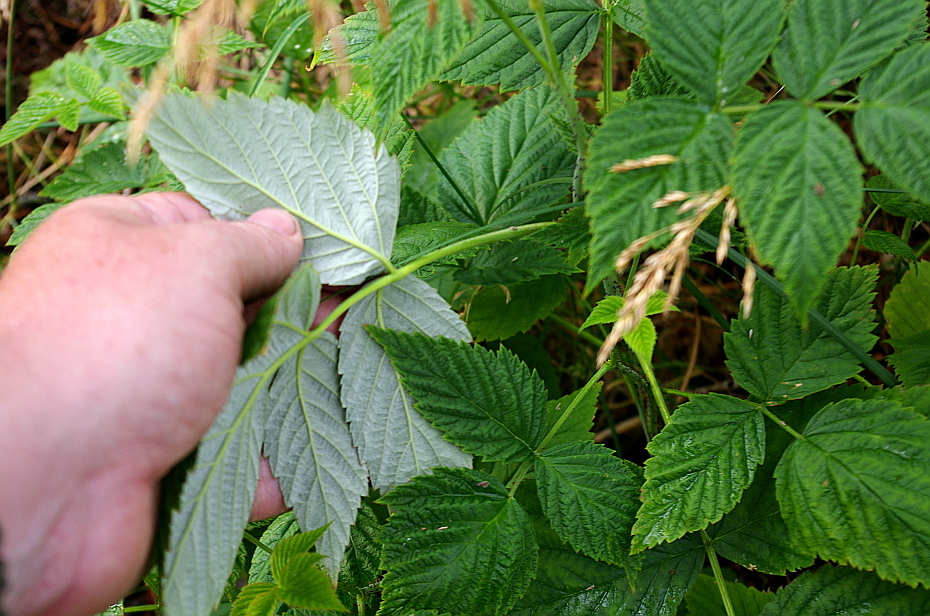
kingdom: Plantae
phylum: Tracheophyta
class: Magnoliopsida
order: Rosales
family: Rosaceae
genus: Rubus
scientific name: Rubus idaeus
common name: Raspberry
